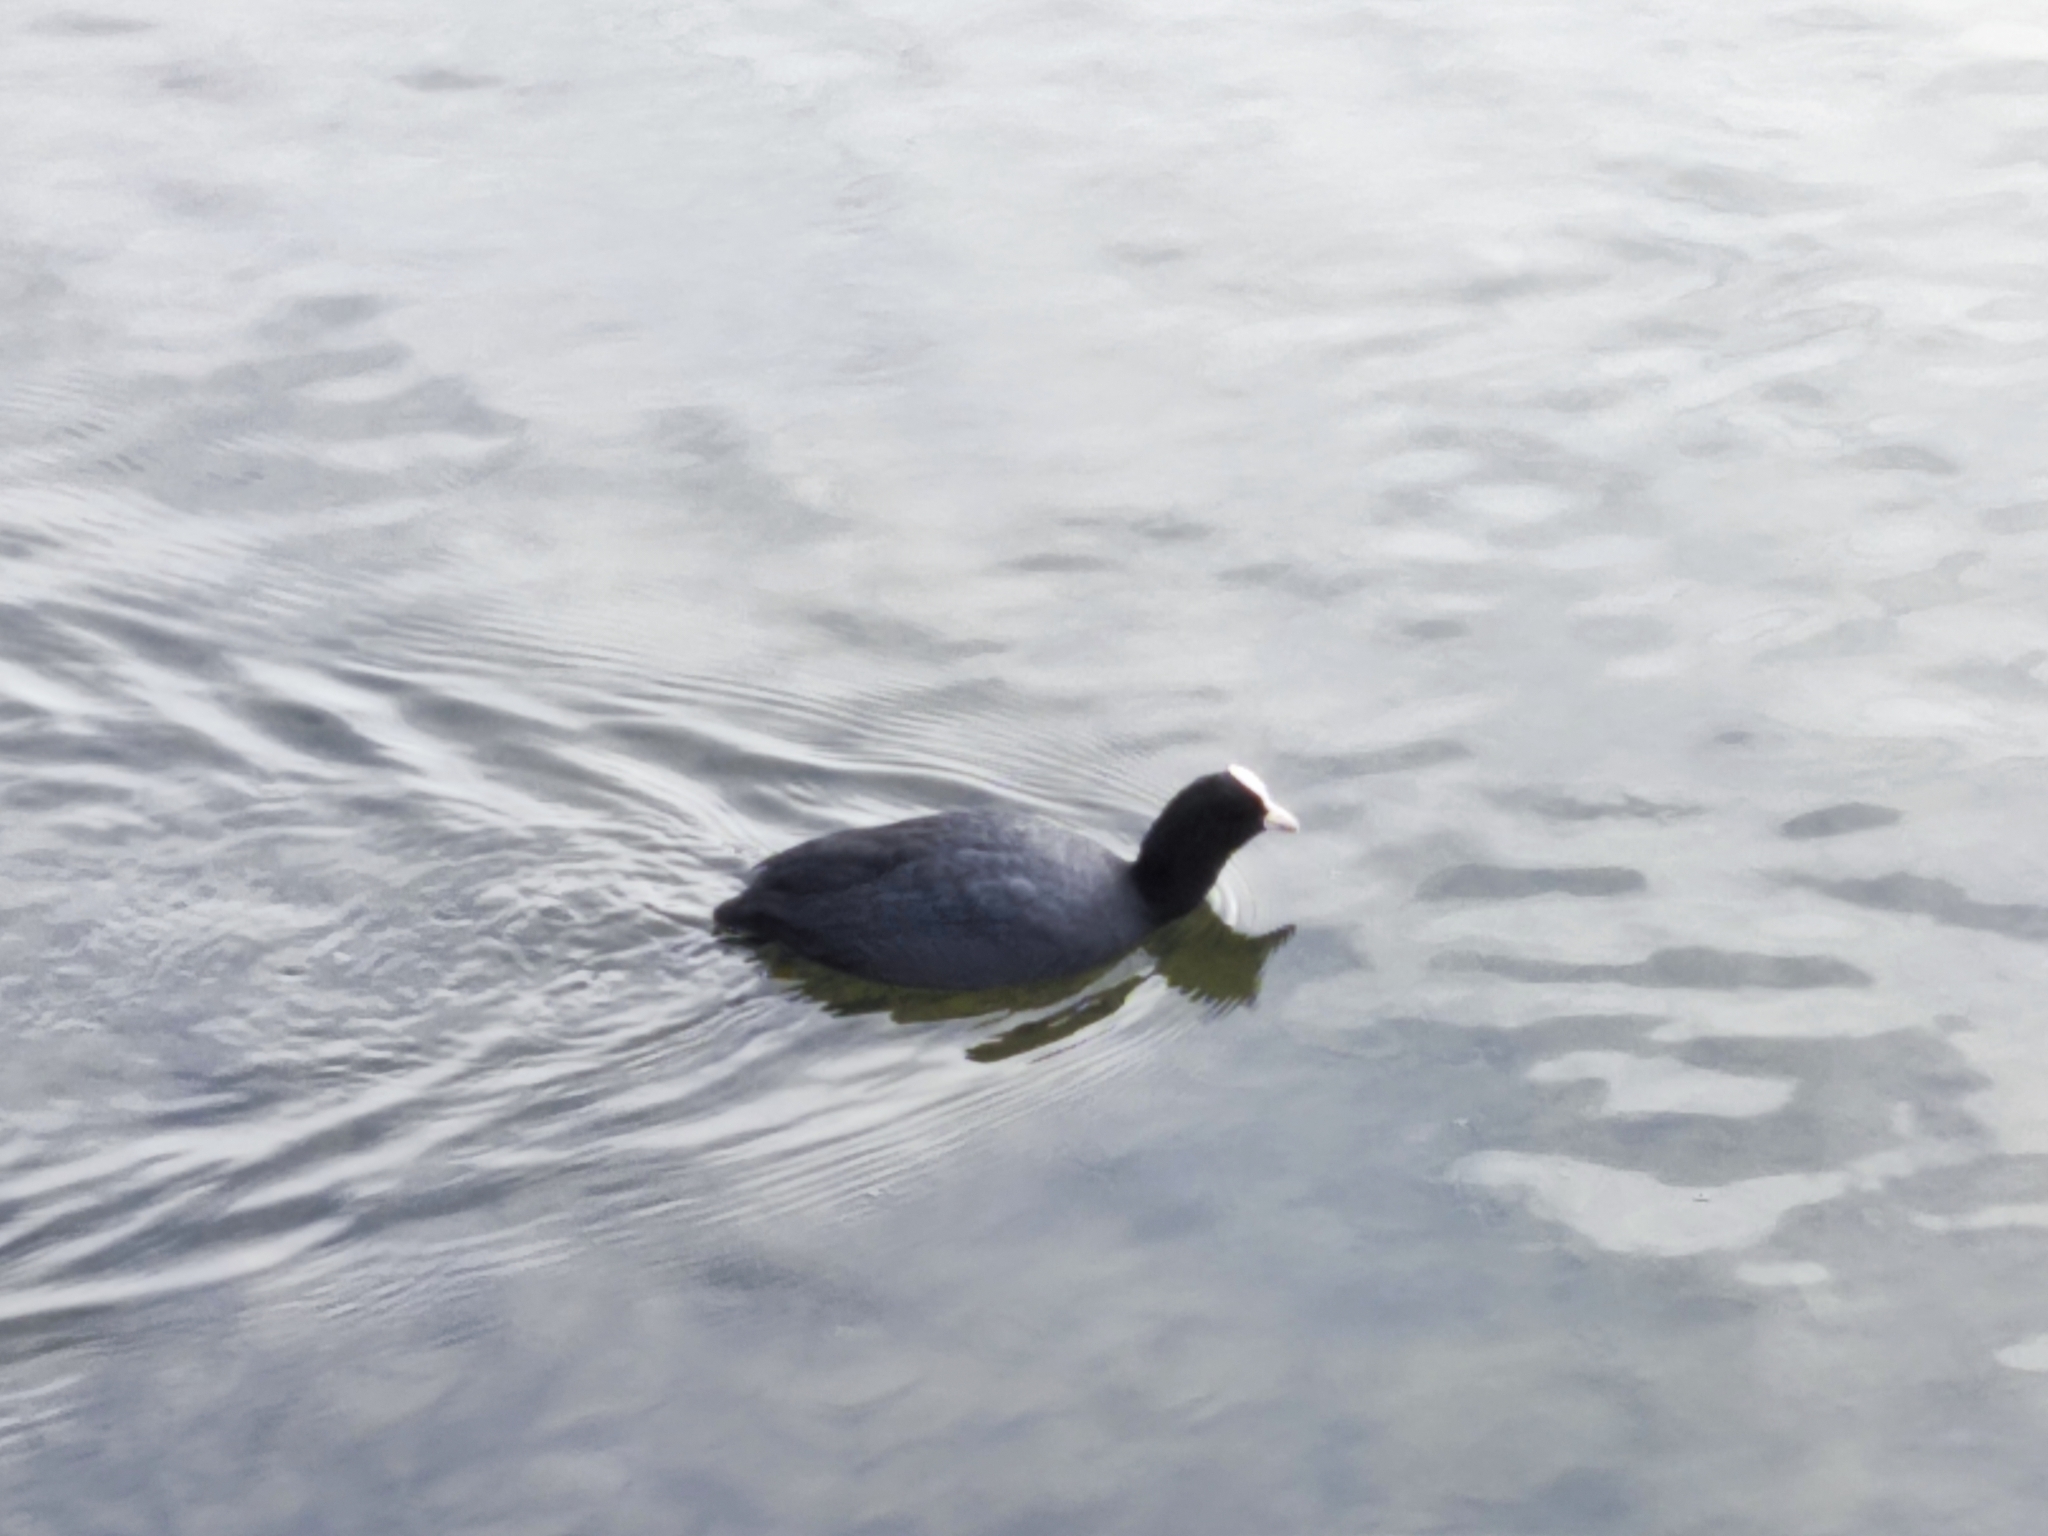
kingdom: Animalia
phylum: Chordata
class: Aves
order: Gruiformes
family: Rallidae
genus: Fulica
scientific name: Fulica atra
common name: Eurasian coot
